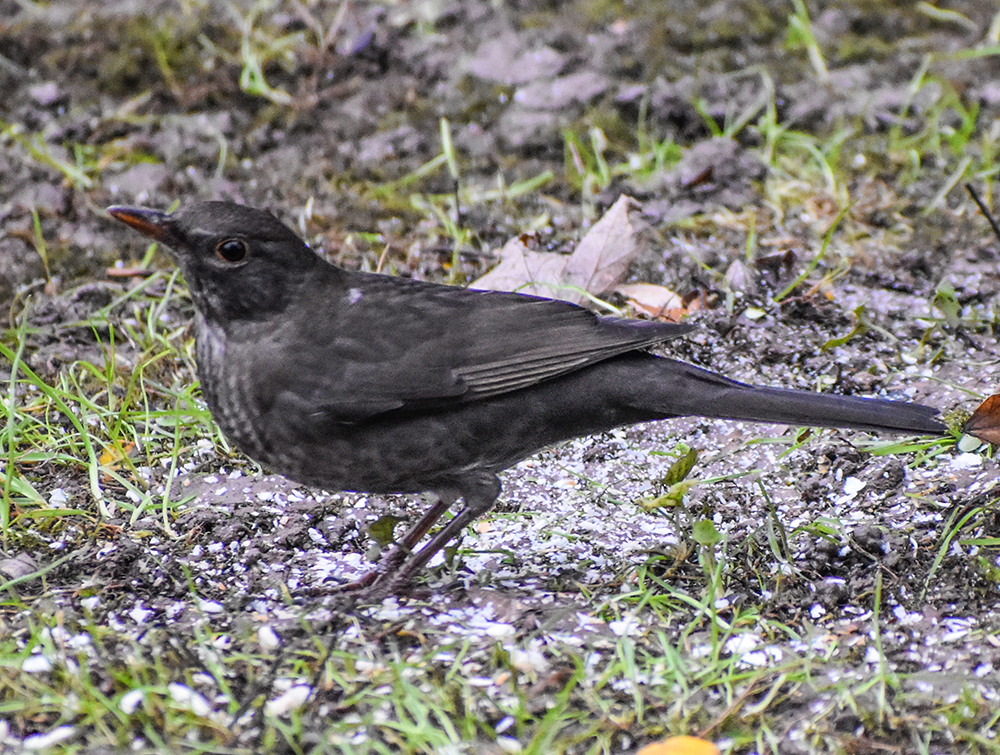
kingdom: Animalia
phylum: Chordata
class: Aves
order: Passeriformes
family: Turdidae
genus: Turdus
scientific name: Turdus merula
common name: Common blackbird
